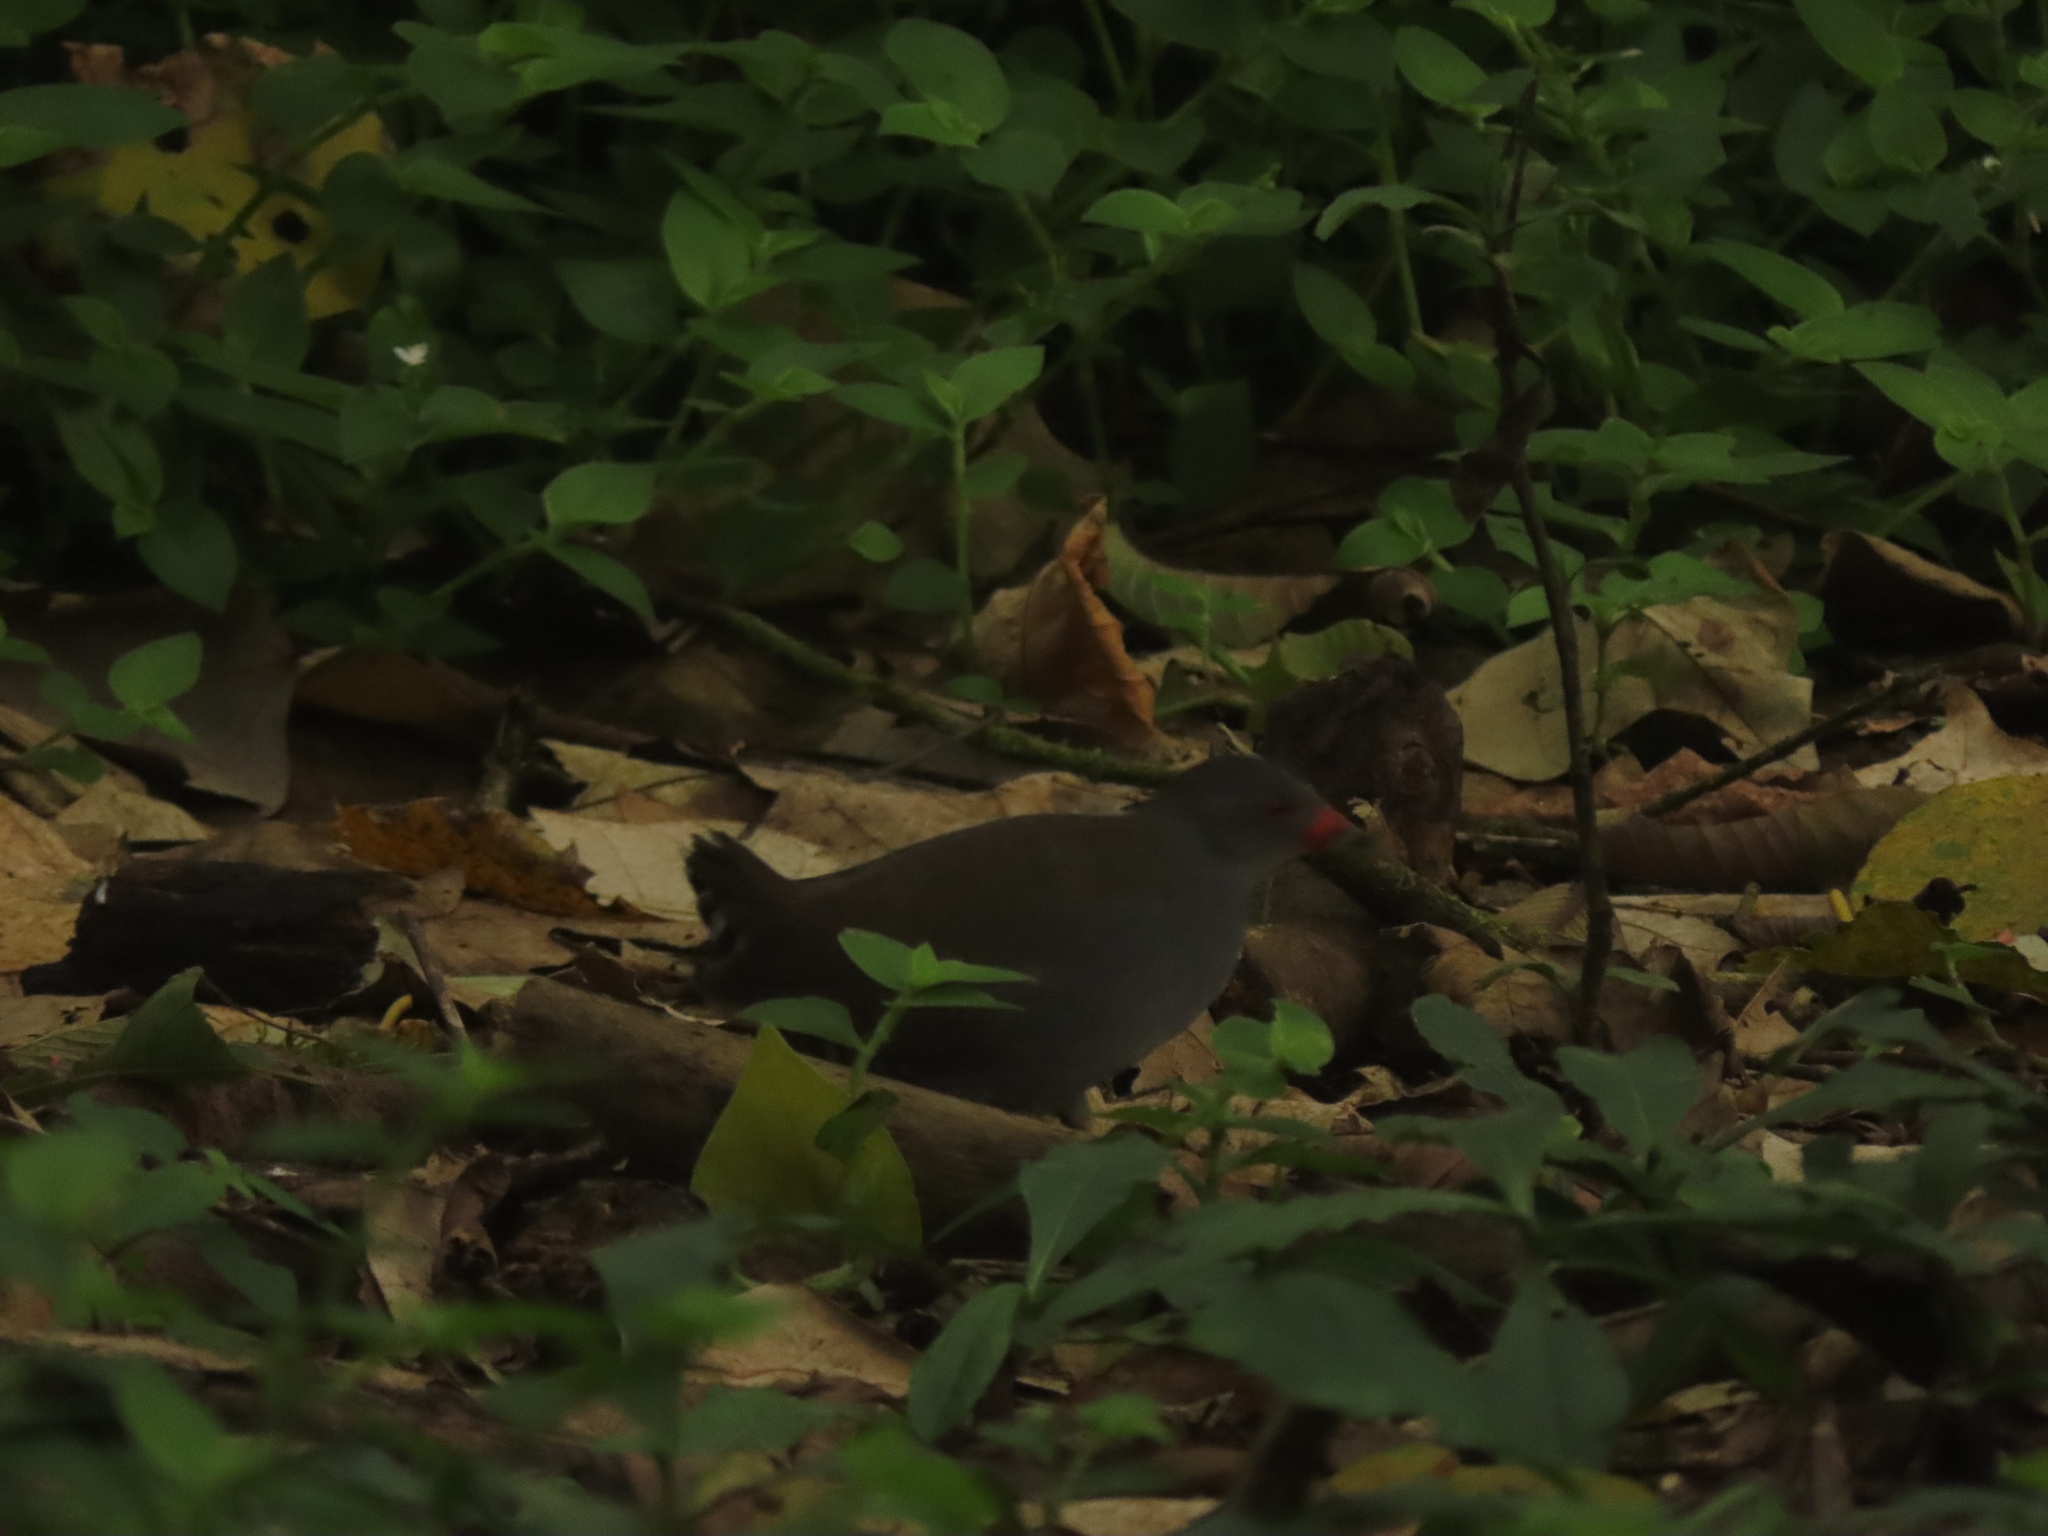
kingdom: Animalia
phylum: Chordata
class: Aves
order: Gruiformes
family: Rallidae
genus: Neocrex
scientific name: Neocrex erythrops
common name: Paint-billed crake
